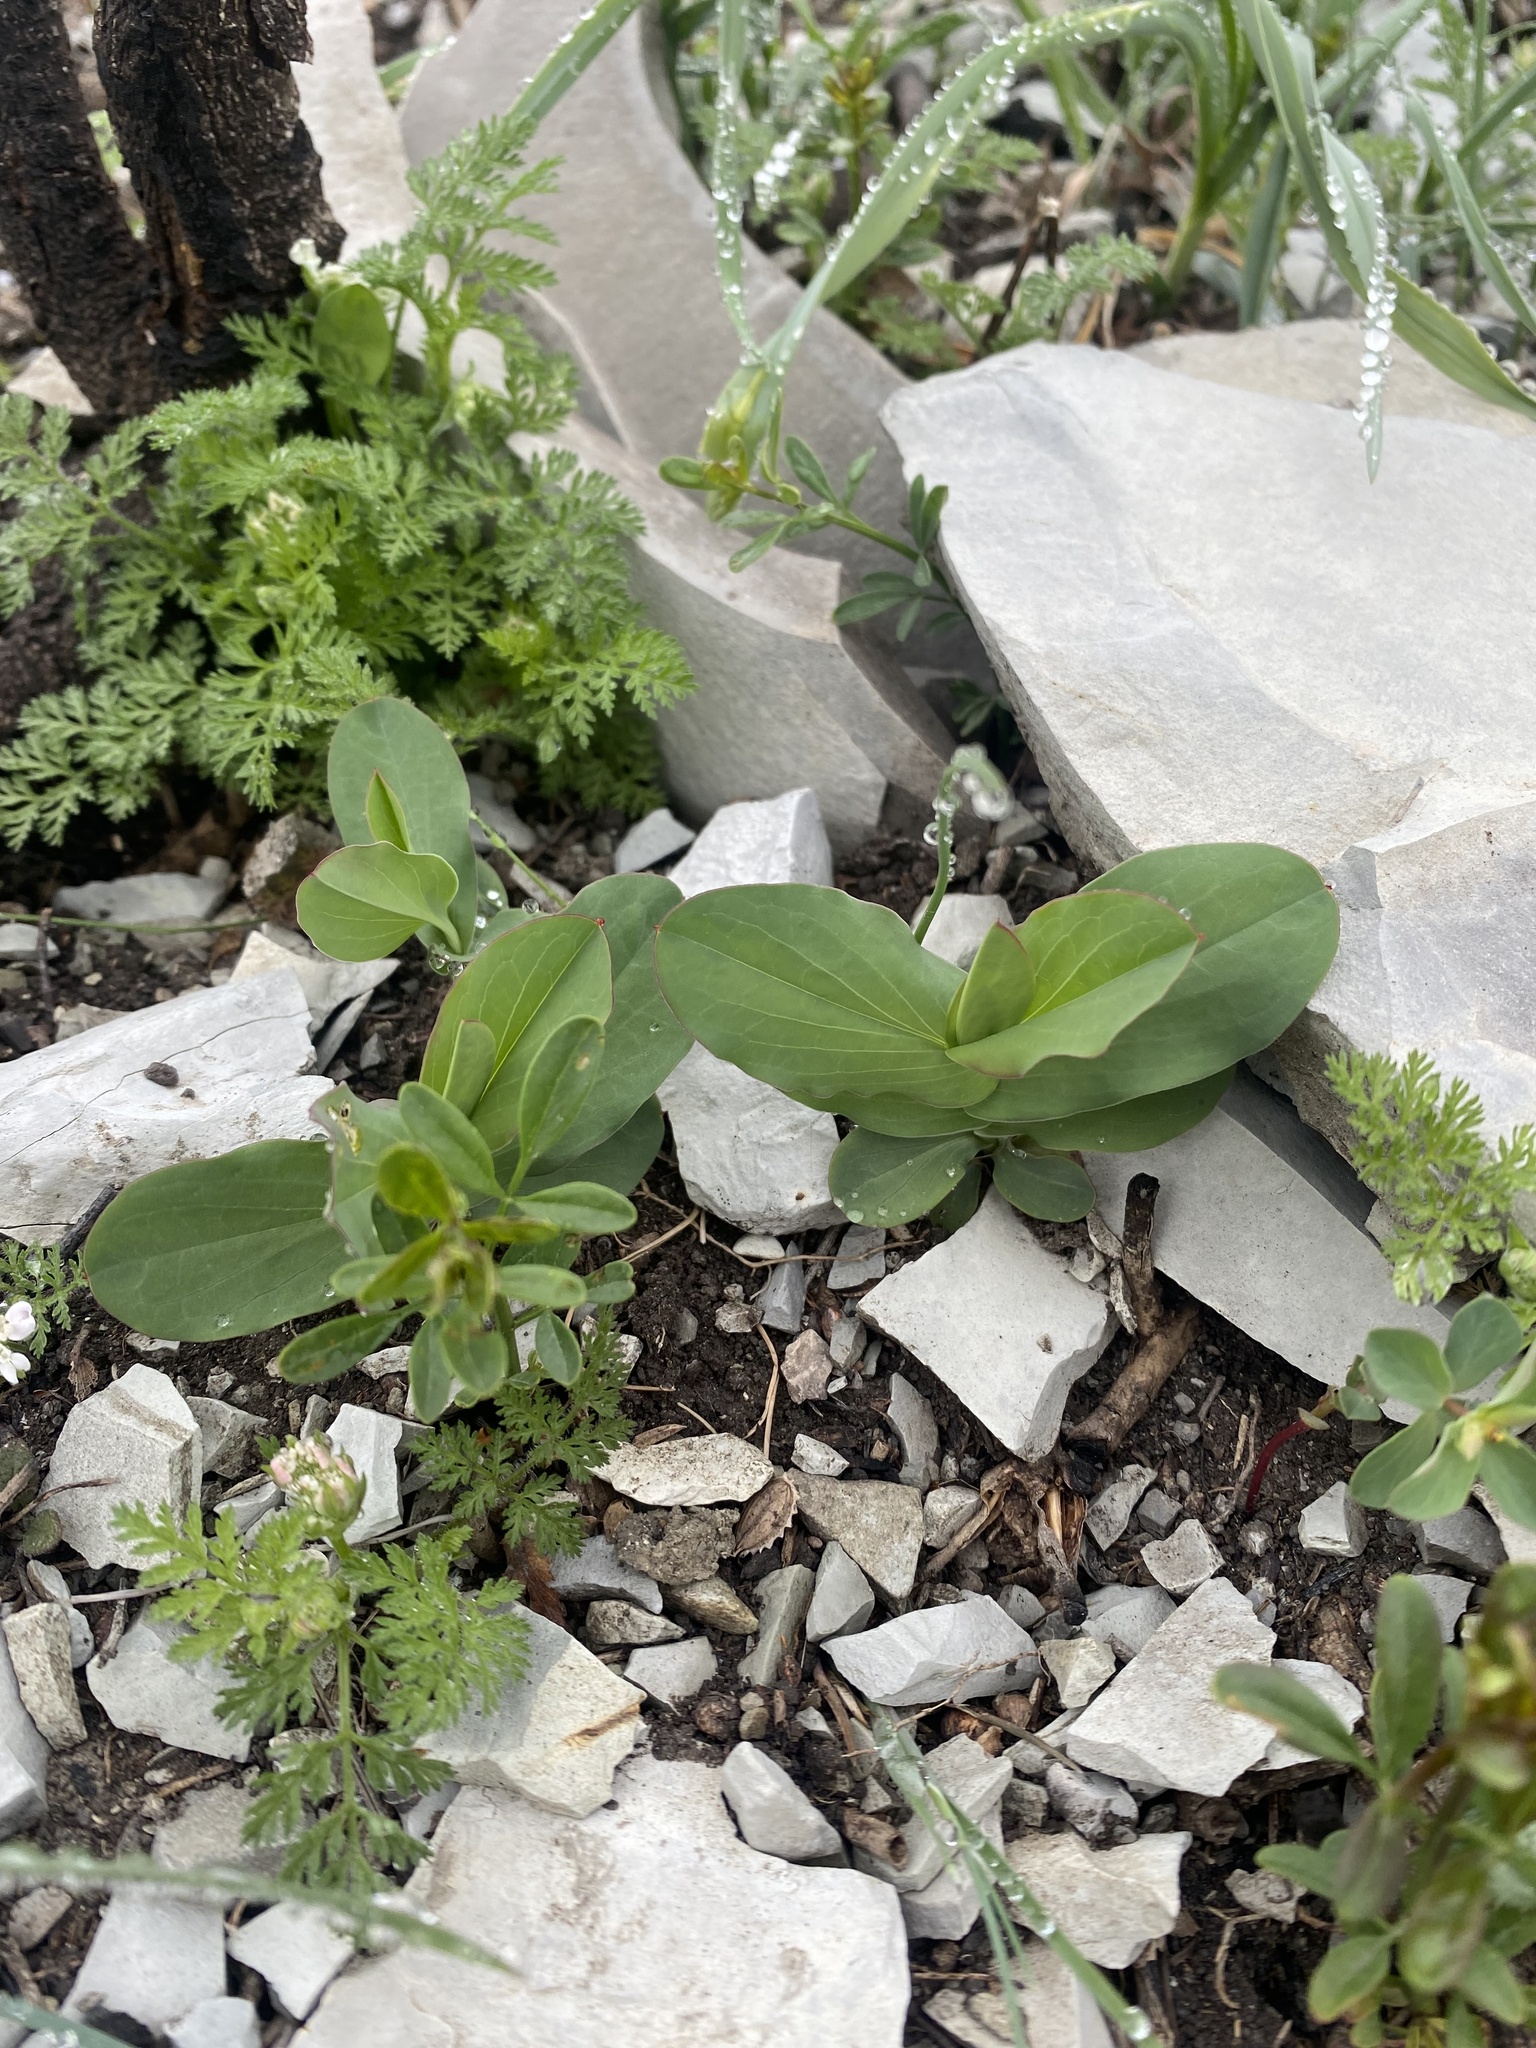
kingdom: Plantae
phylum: Tracheophyta
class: Magnoliopsida
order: Apiales
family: Apiaceae
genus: Bupleurum
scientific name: Bupleurum rotundifolium
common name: Thorow-wax
